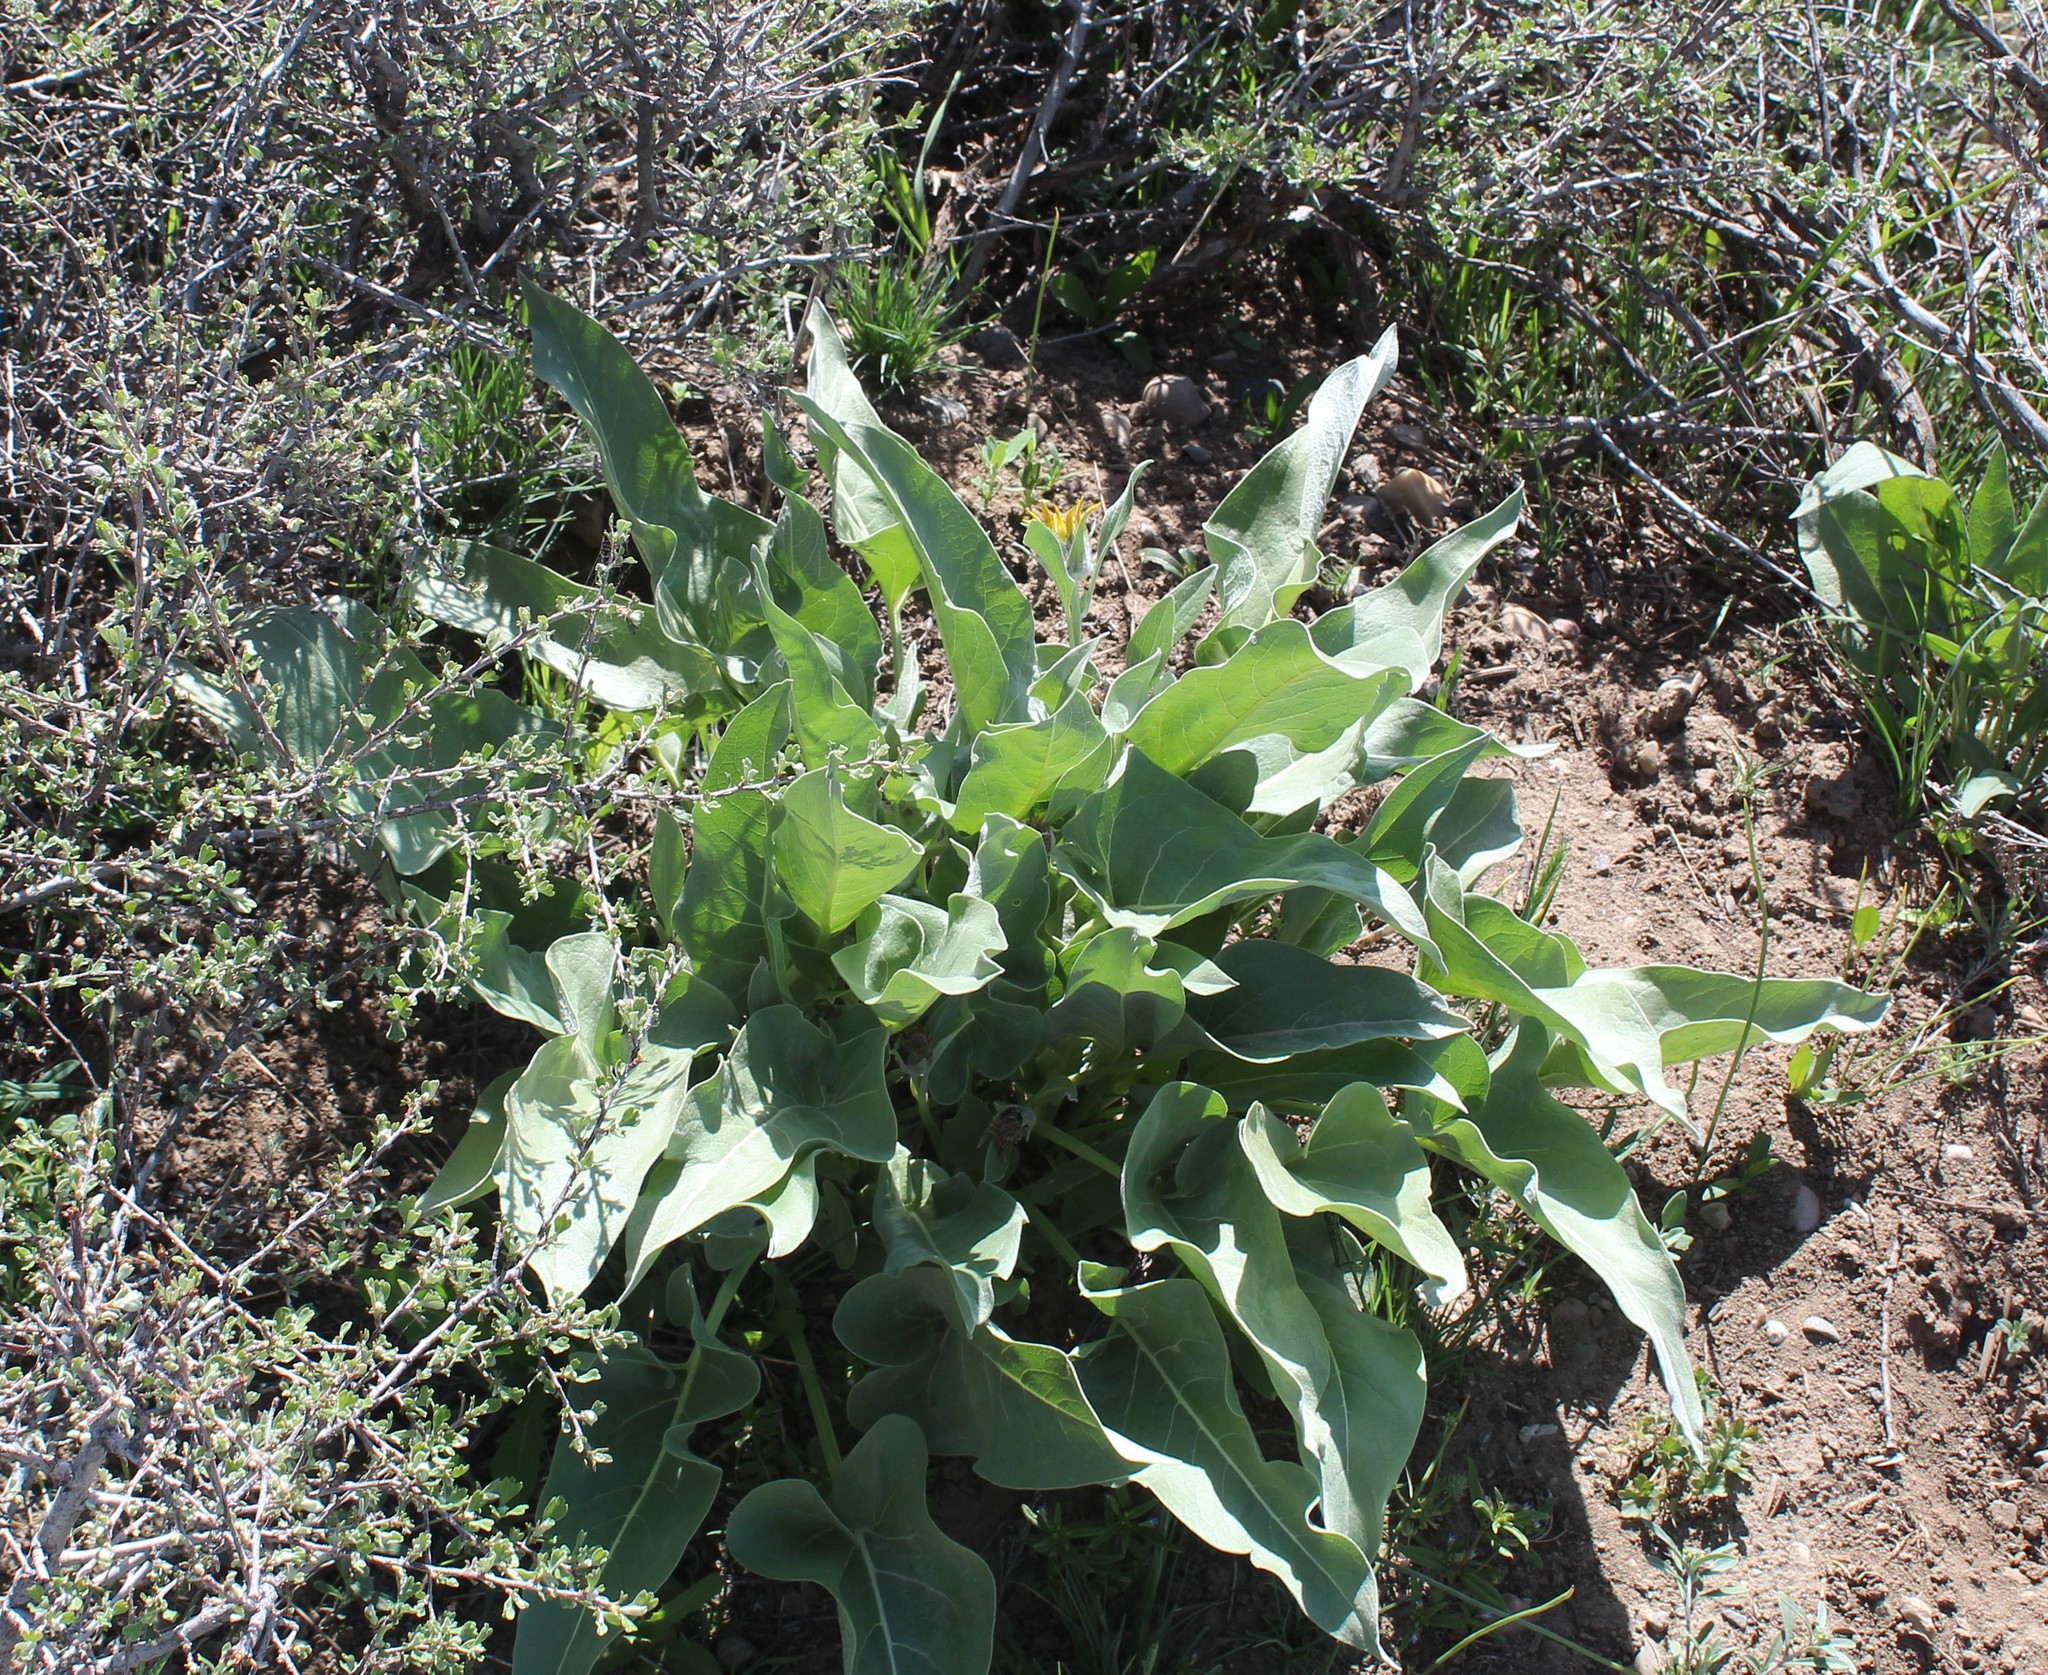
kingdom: Plantae
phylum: Tracheophyta
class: Magnoliopsida
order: Asterales
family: Asteraceae
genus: Wyethia
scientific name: Wyethia sagittata
